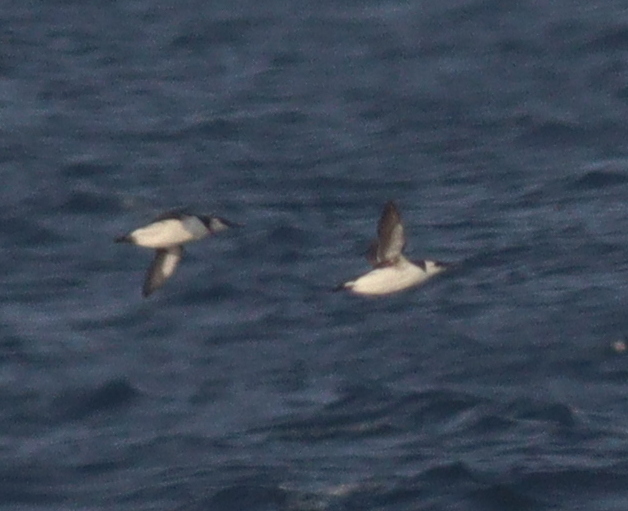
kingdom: Animalia
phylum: Chordata
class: Aves
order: Charadriiformes
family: Alcidae
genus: Uria
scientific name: Uria aalge
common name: Common murre
